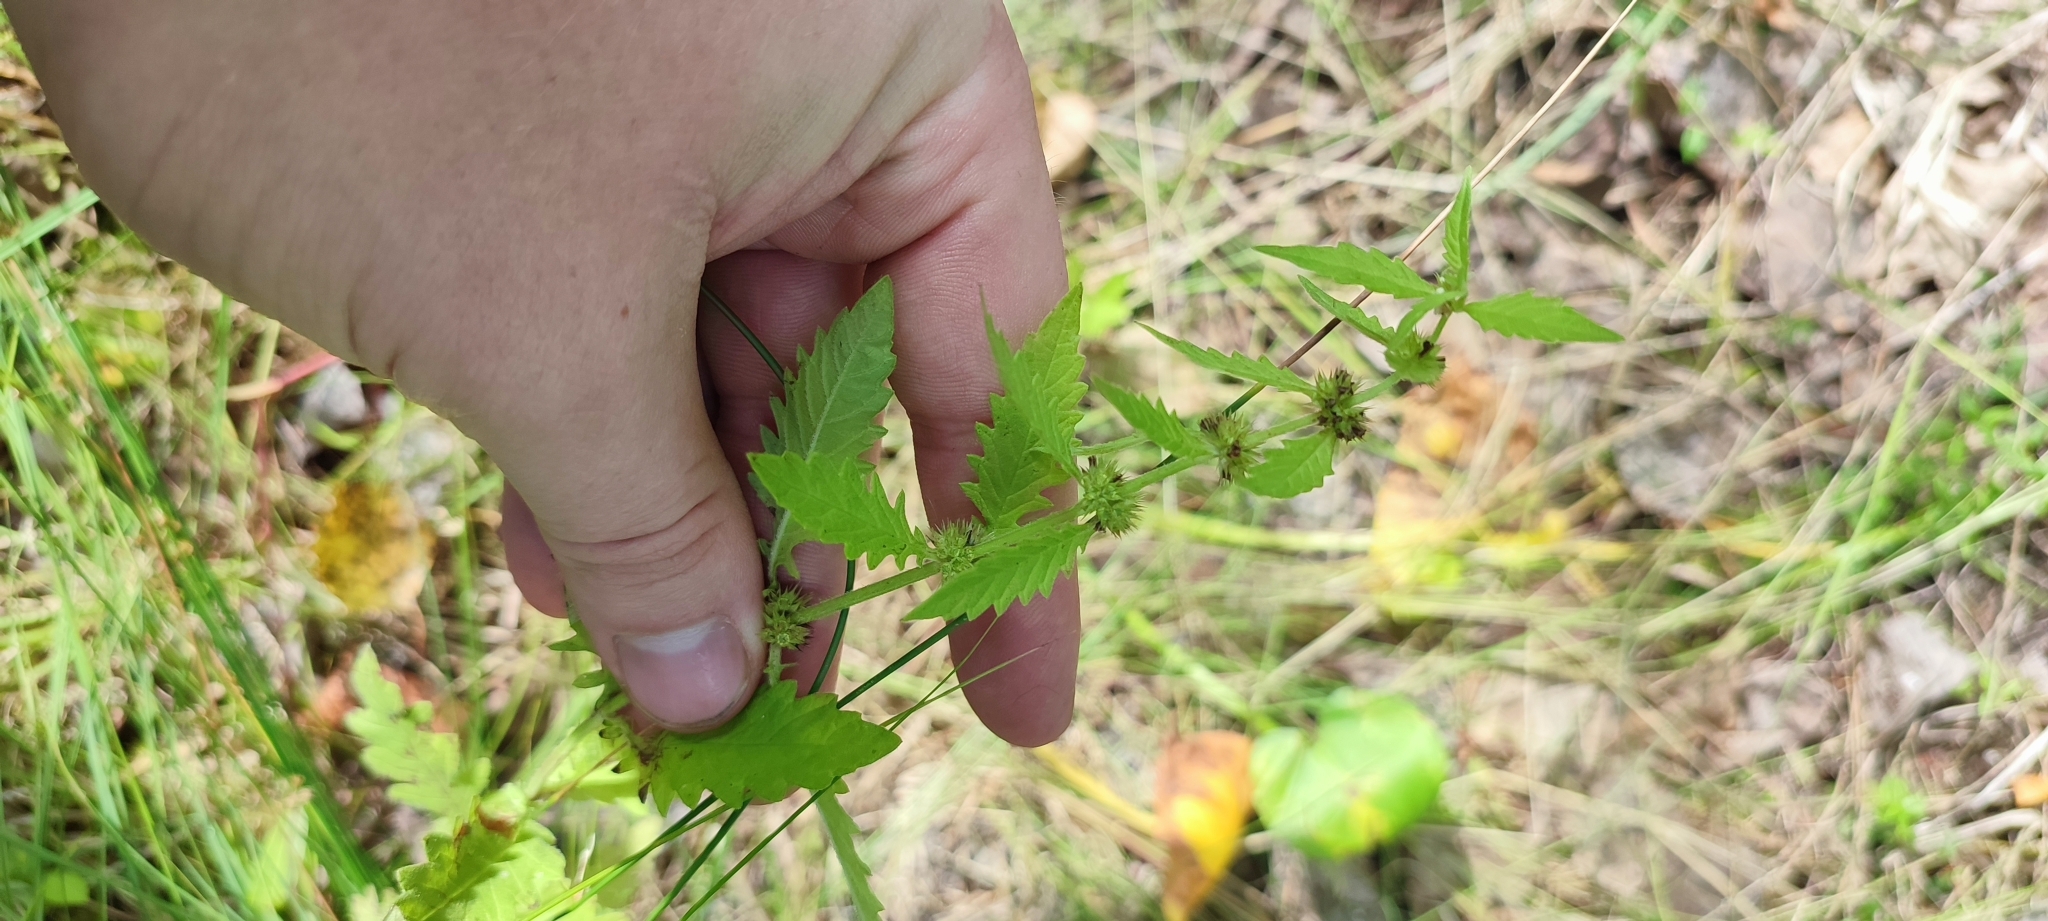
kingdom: Plantae
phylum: Tracheophyta
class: Magnoliopsida
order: Lamiales
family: Lamiaceae
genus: Lycopus
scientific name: Lycopus europaeus
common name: European bugleweed
